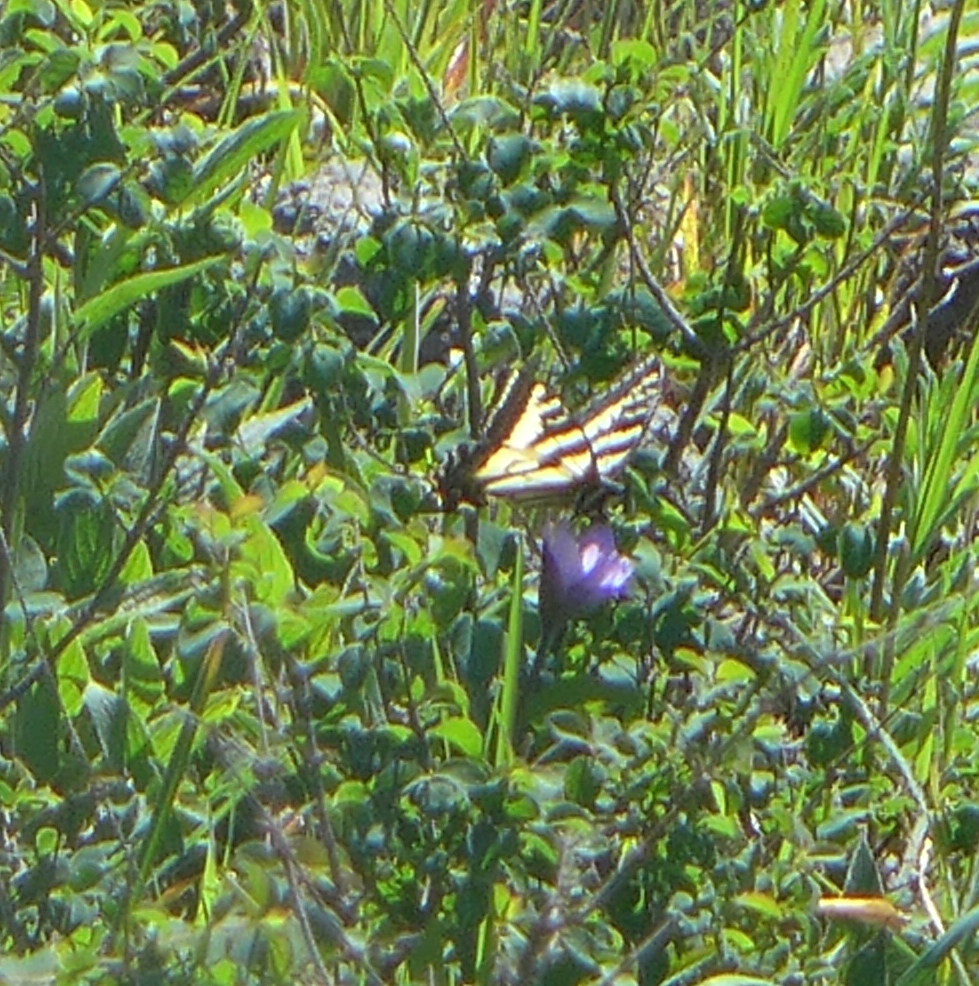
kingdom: Animalia
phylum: Arthropoda
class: Insecta
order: Lepidoptera
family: Papilionidae
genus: Papilio
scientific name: Papilio eurymedon
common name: Pale tiger swallowtail
